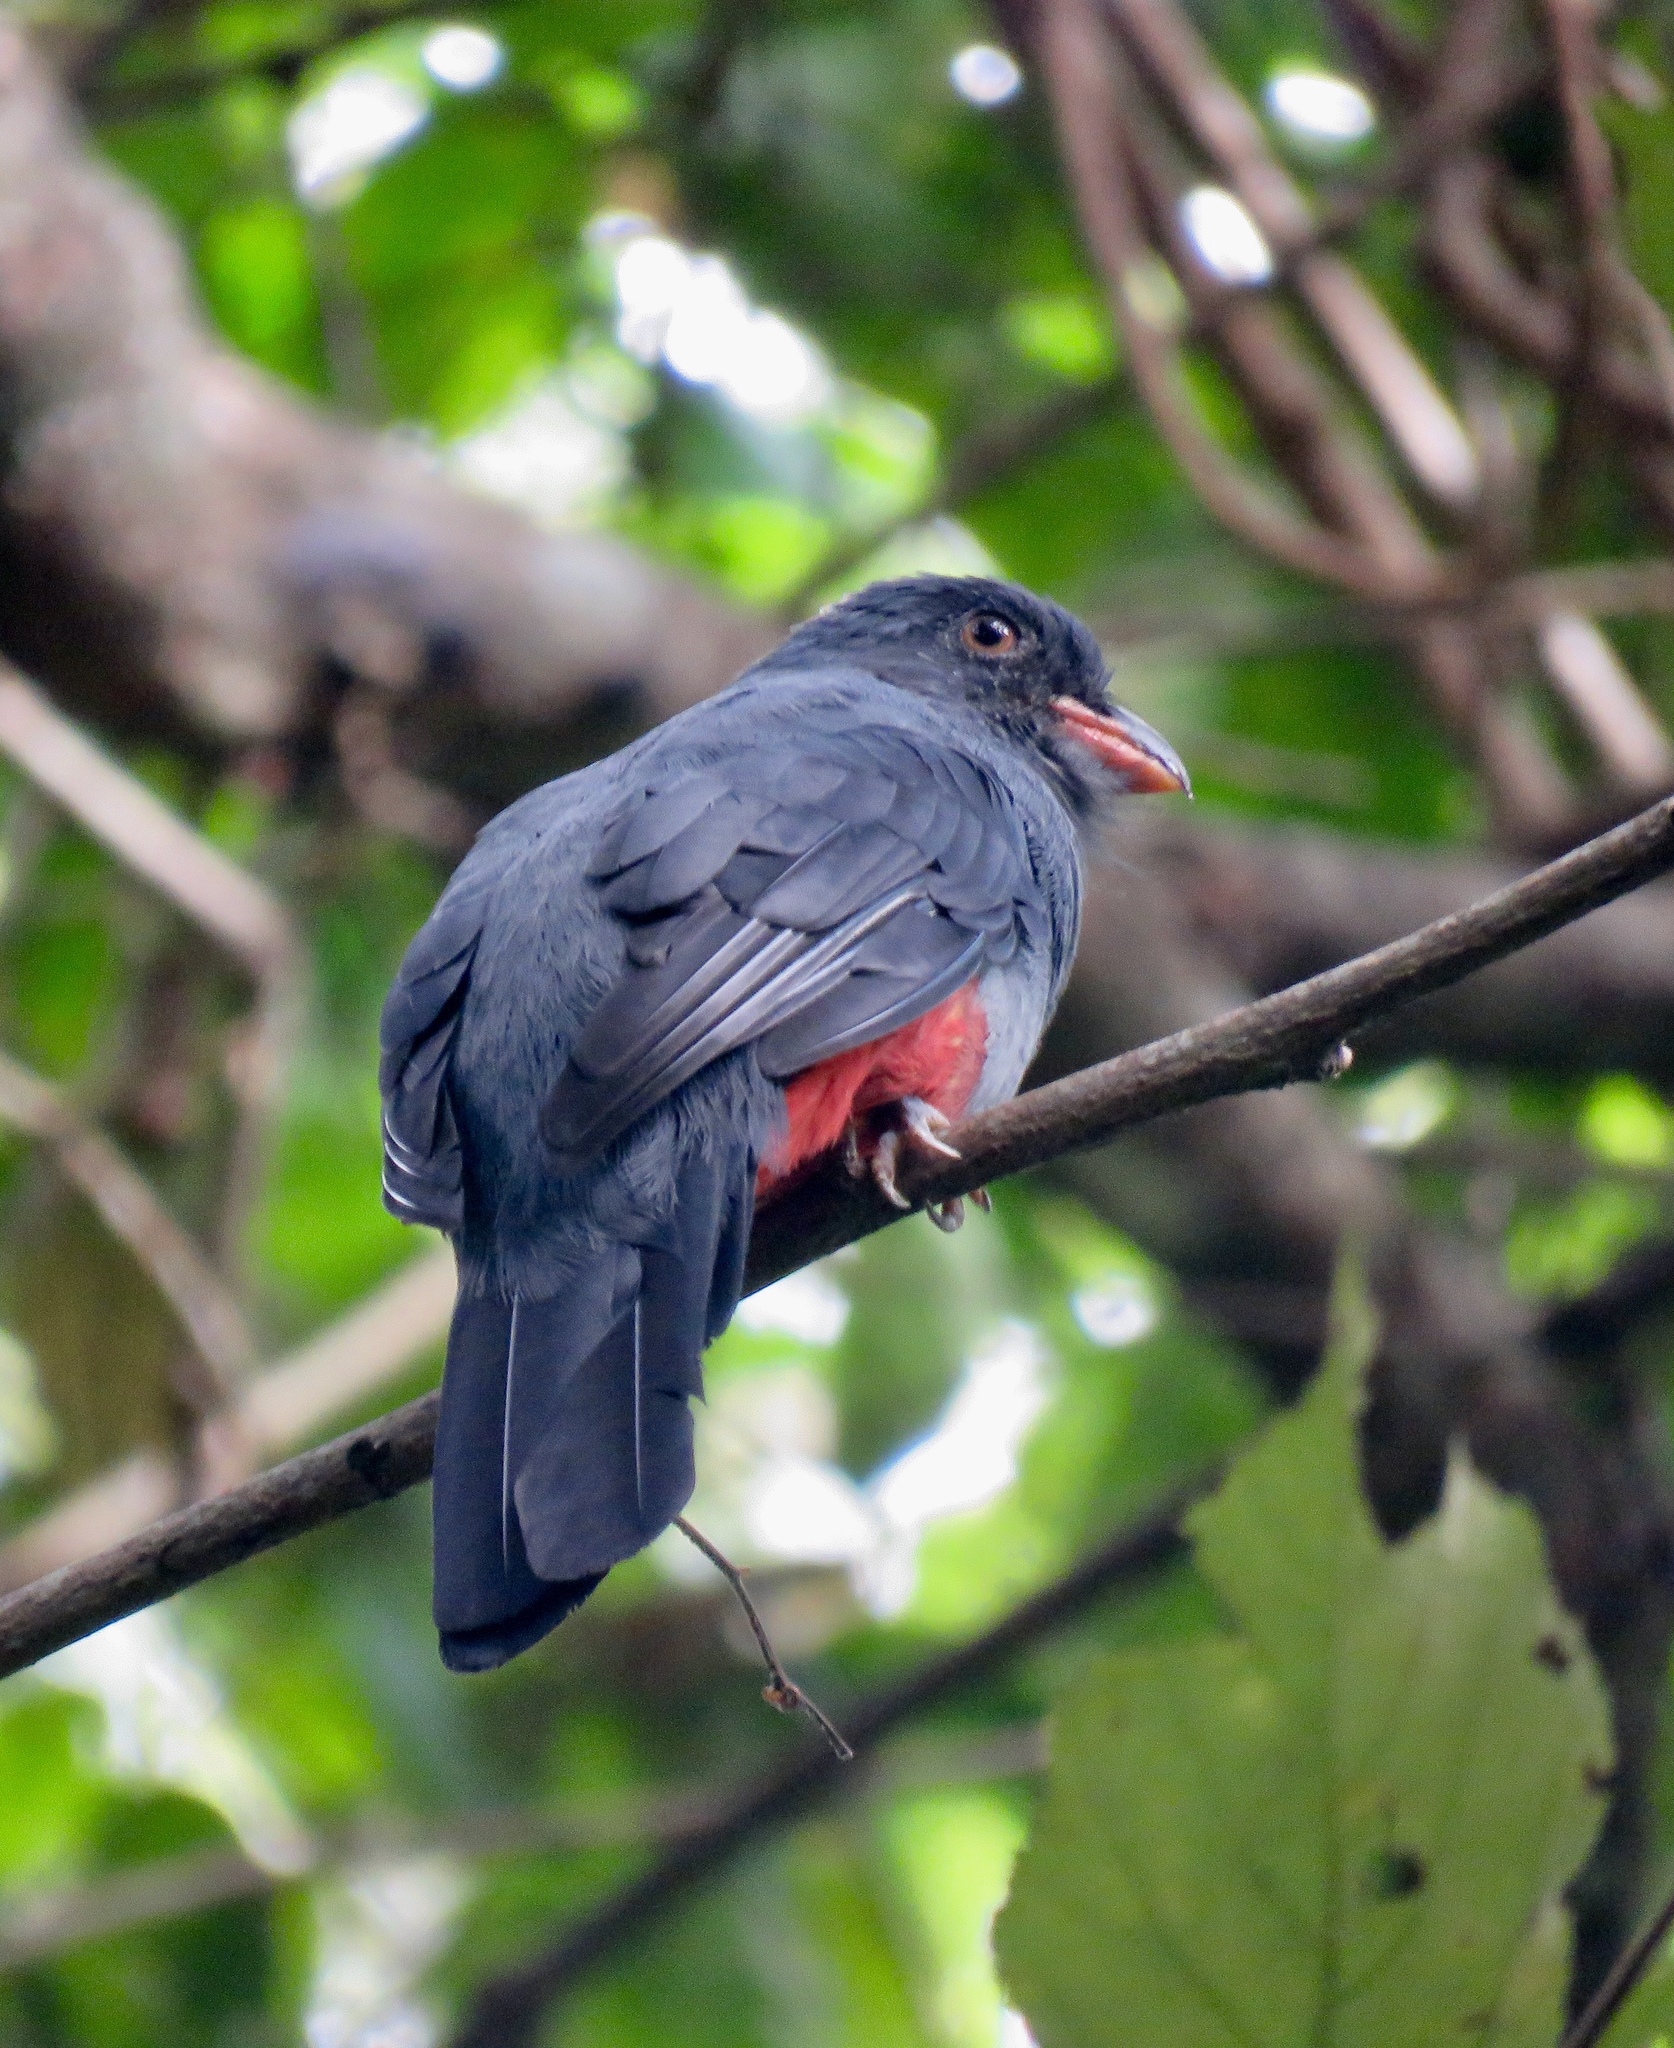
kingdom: Animalia
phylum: Chordata
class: Aves
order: Trogoniformes
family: Trogonidae
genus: Trogon
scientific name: Trogon massena
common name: Slaty-tailed trogon
